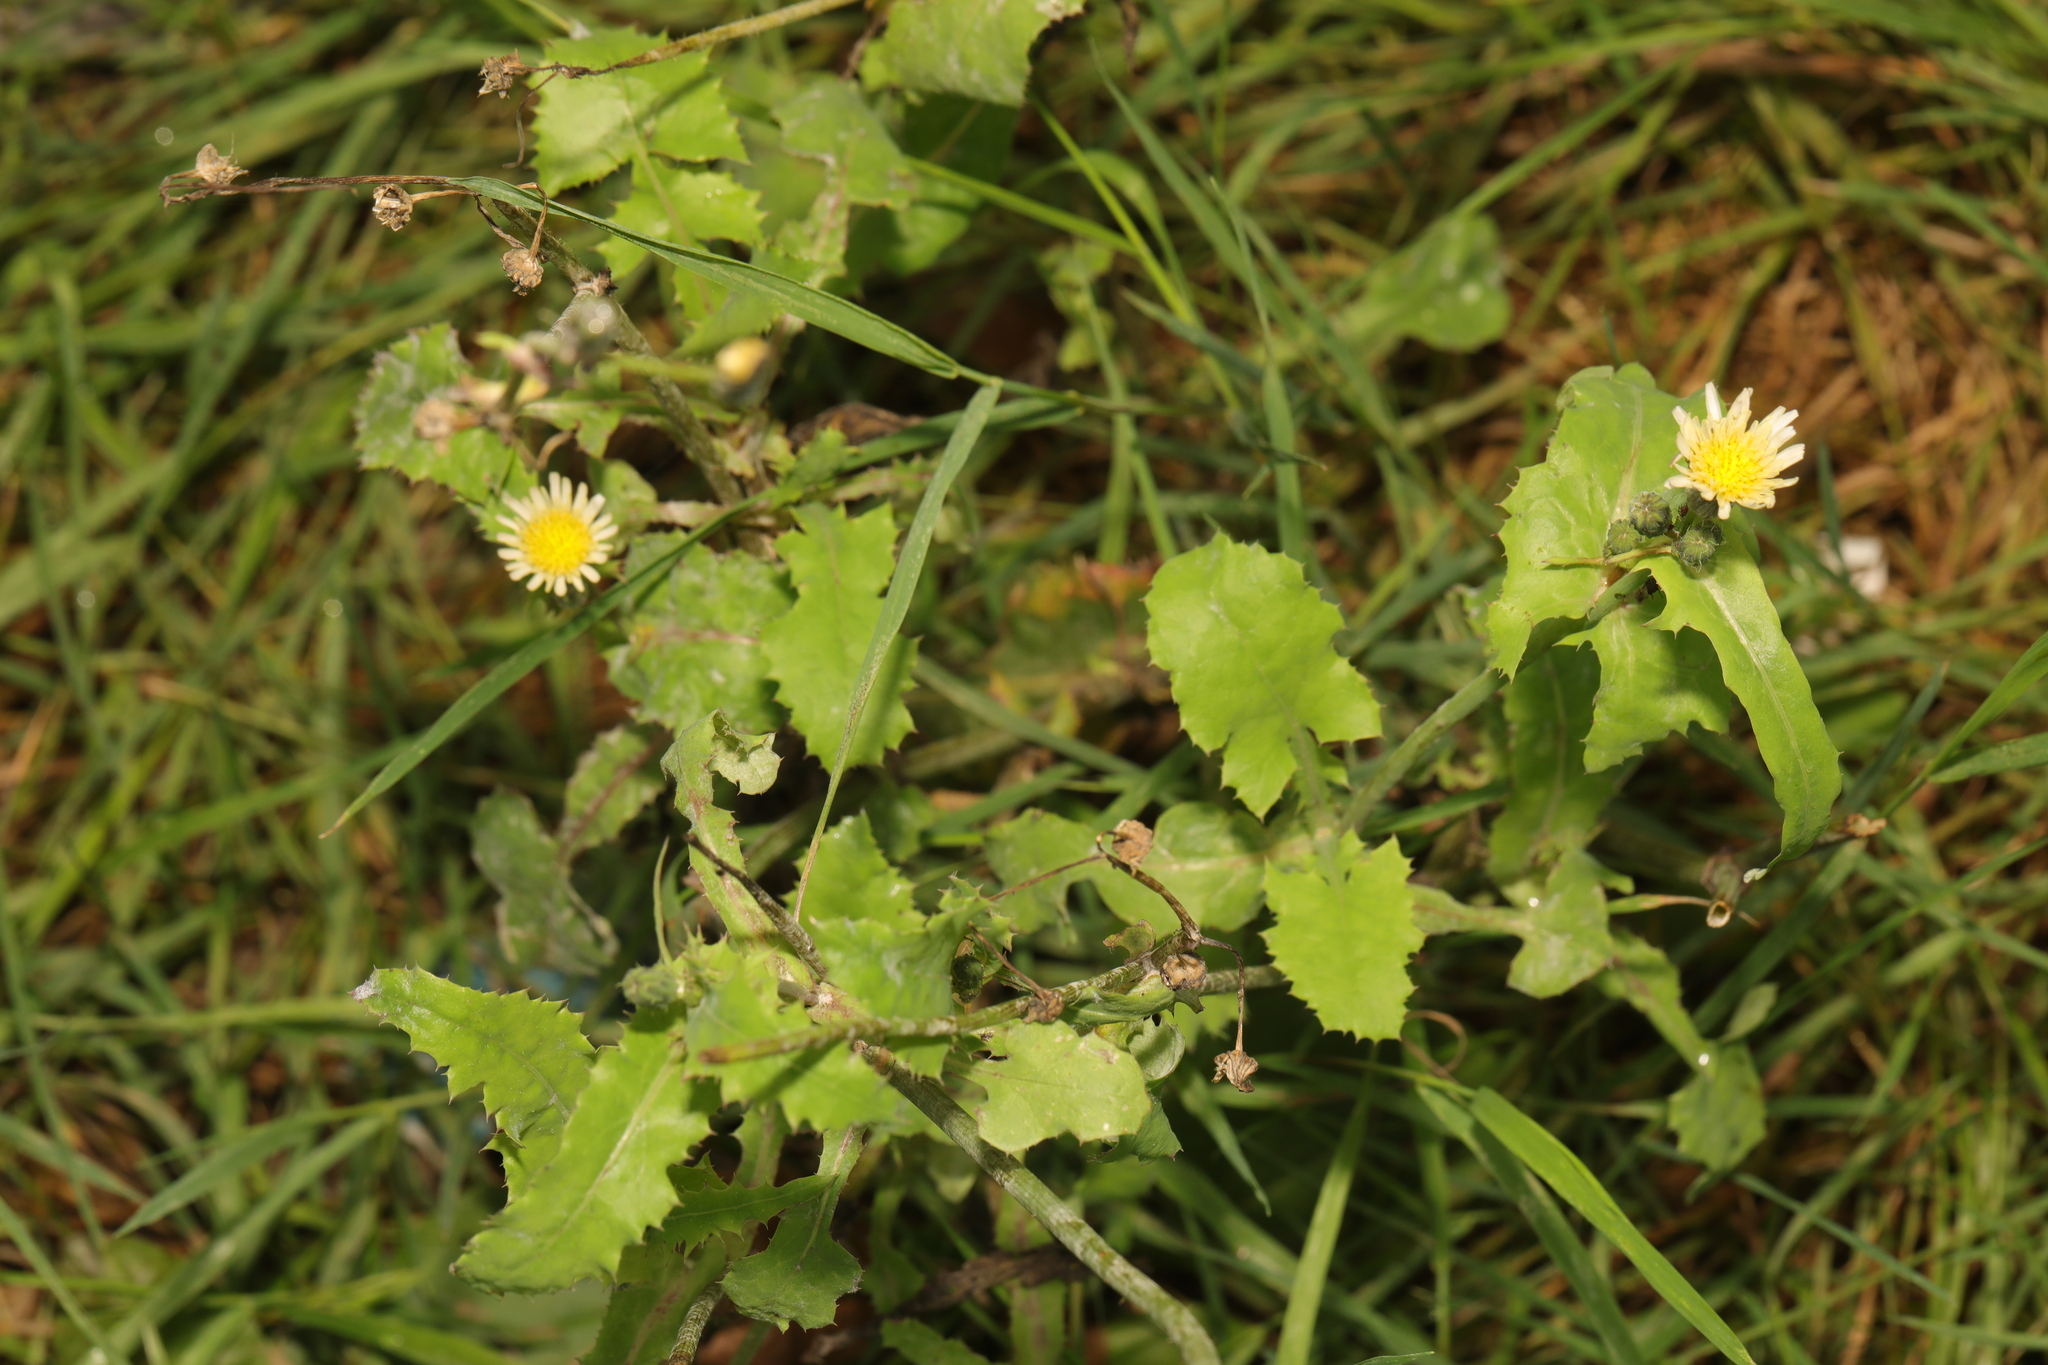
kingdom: Plantae
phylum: Tracheophyta
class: Magnoliopsida
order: Asterales
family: Asteraceae
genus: Sonchus
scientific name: Sonchus oleraceus
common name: Common sowthistle
